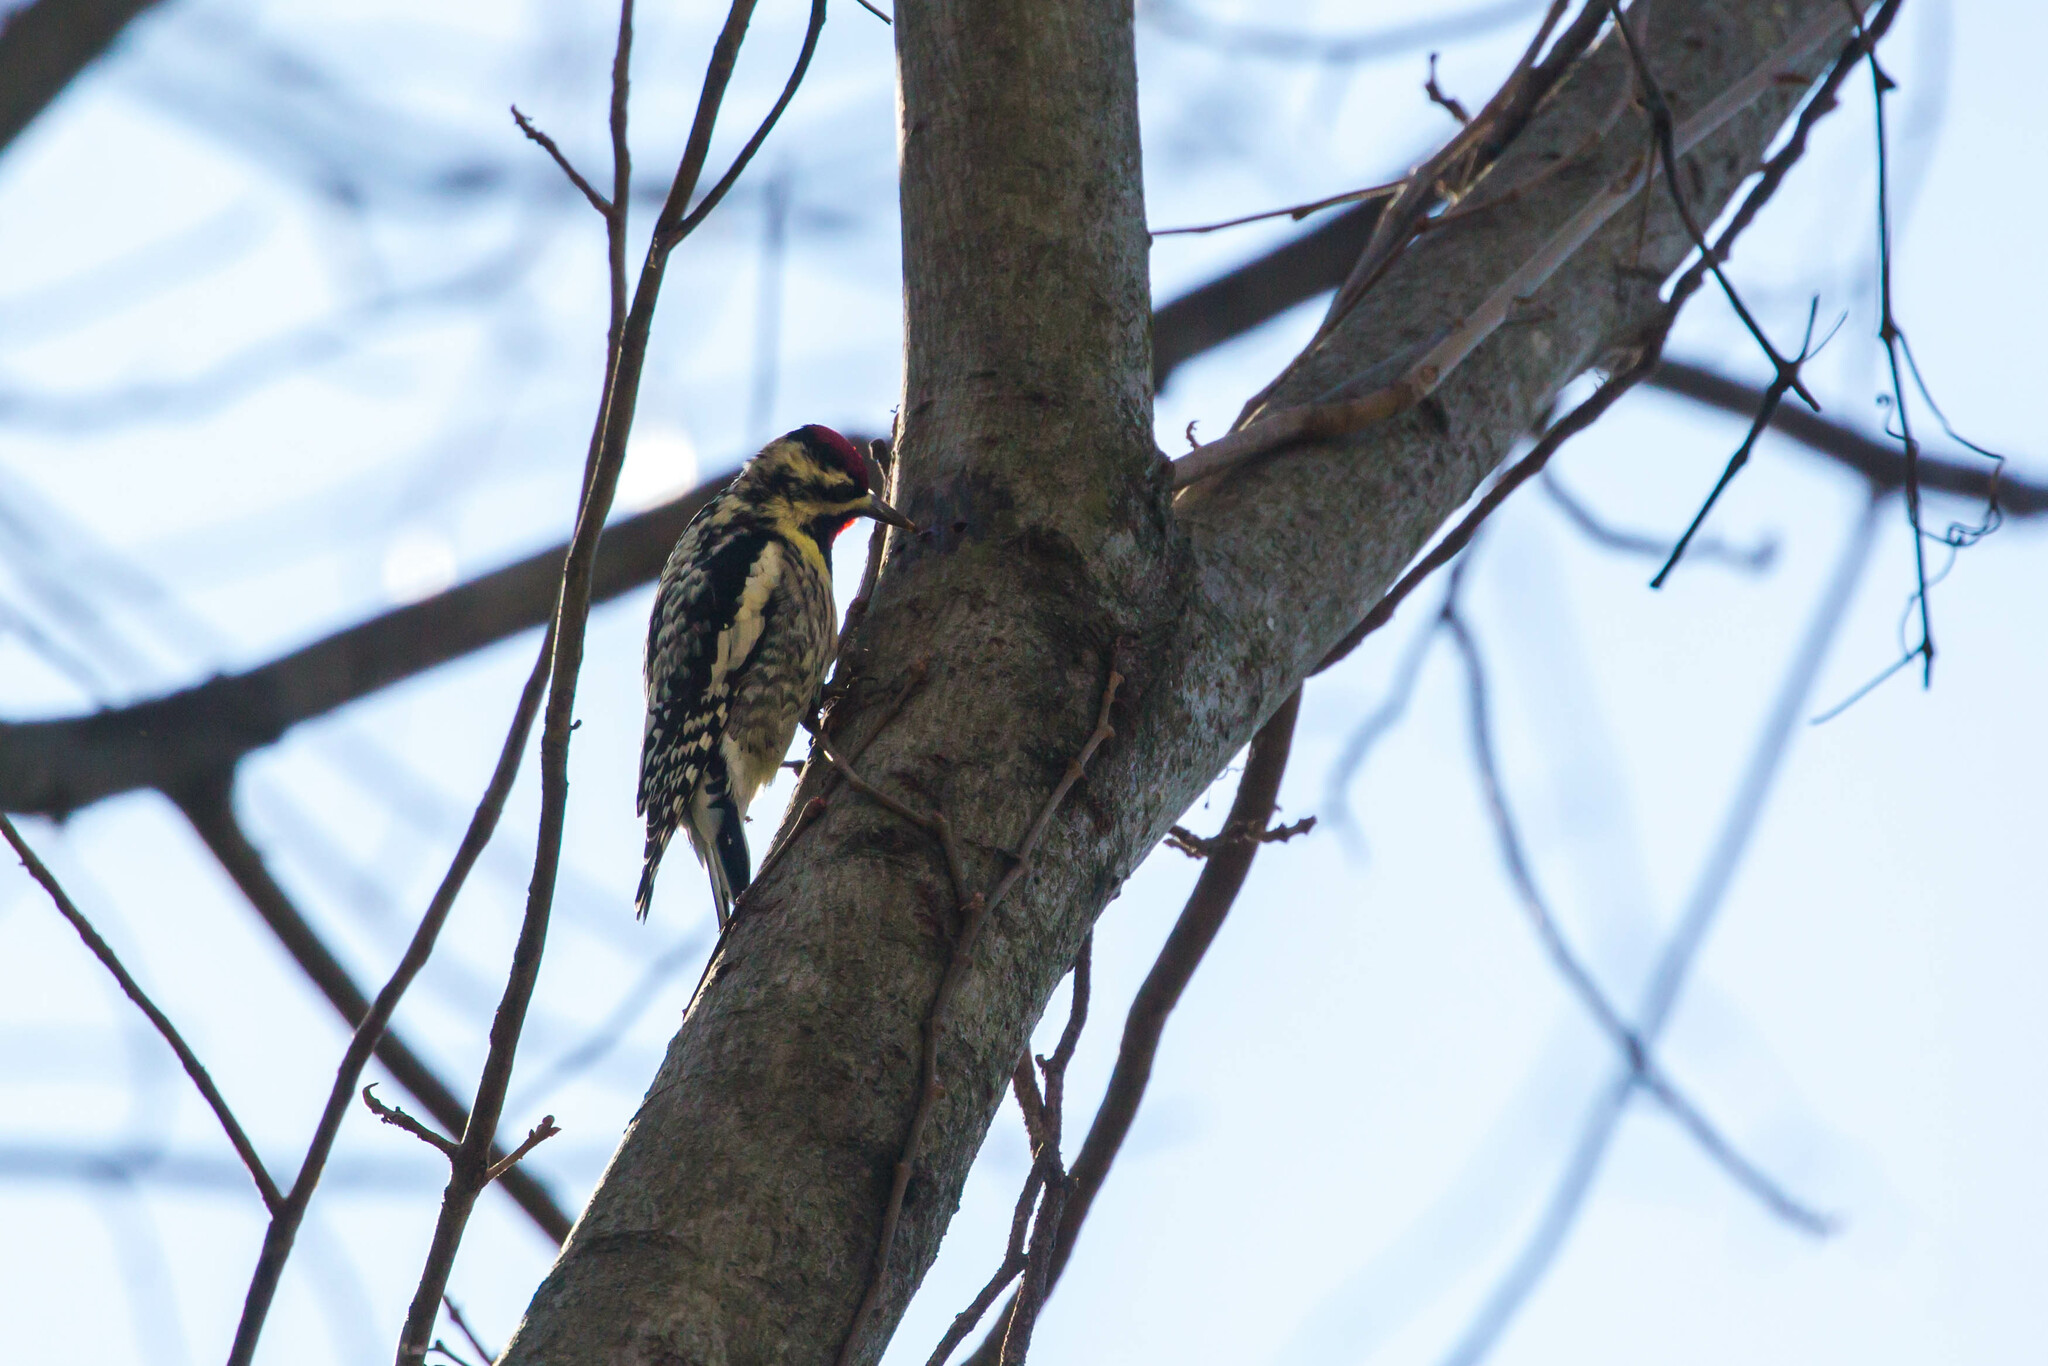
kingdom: Animalia
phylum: Chordata
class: Aves
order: Piciformes
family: Picidae
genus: Sphyrapicus
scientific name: Sphyrapicus varius
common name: Yellow-bellied sapsucker
